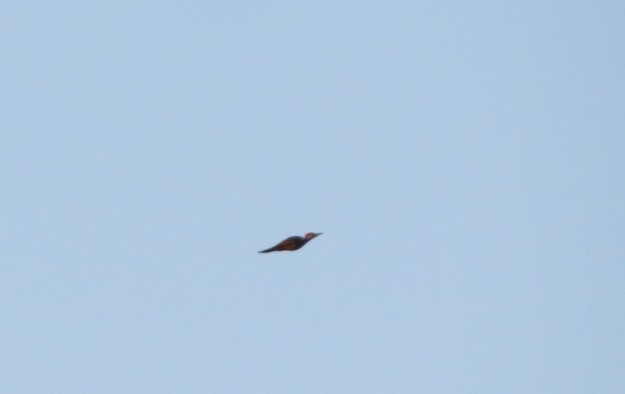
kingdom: Animalia
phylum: Chordata
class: Aves
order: Piciformes
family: Picidae
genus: Dryocopus
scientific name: Dryocopus pileatus
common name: Pileated woodpecker
